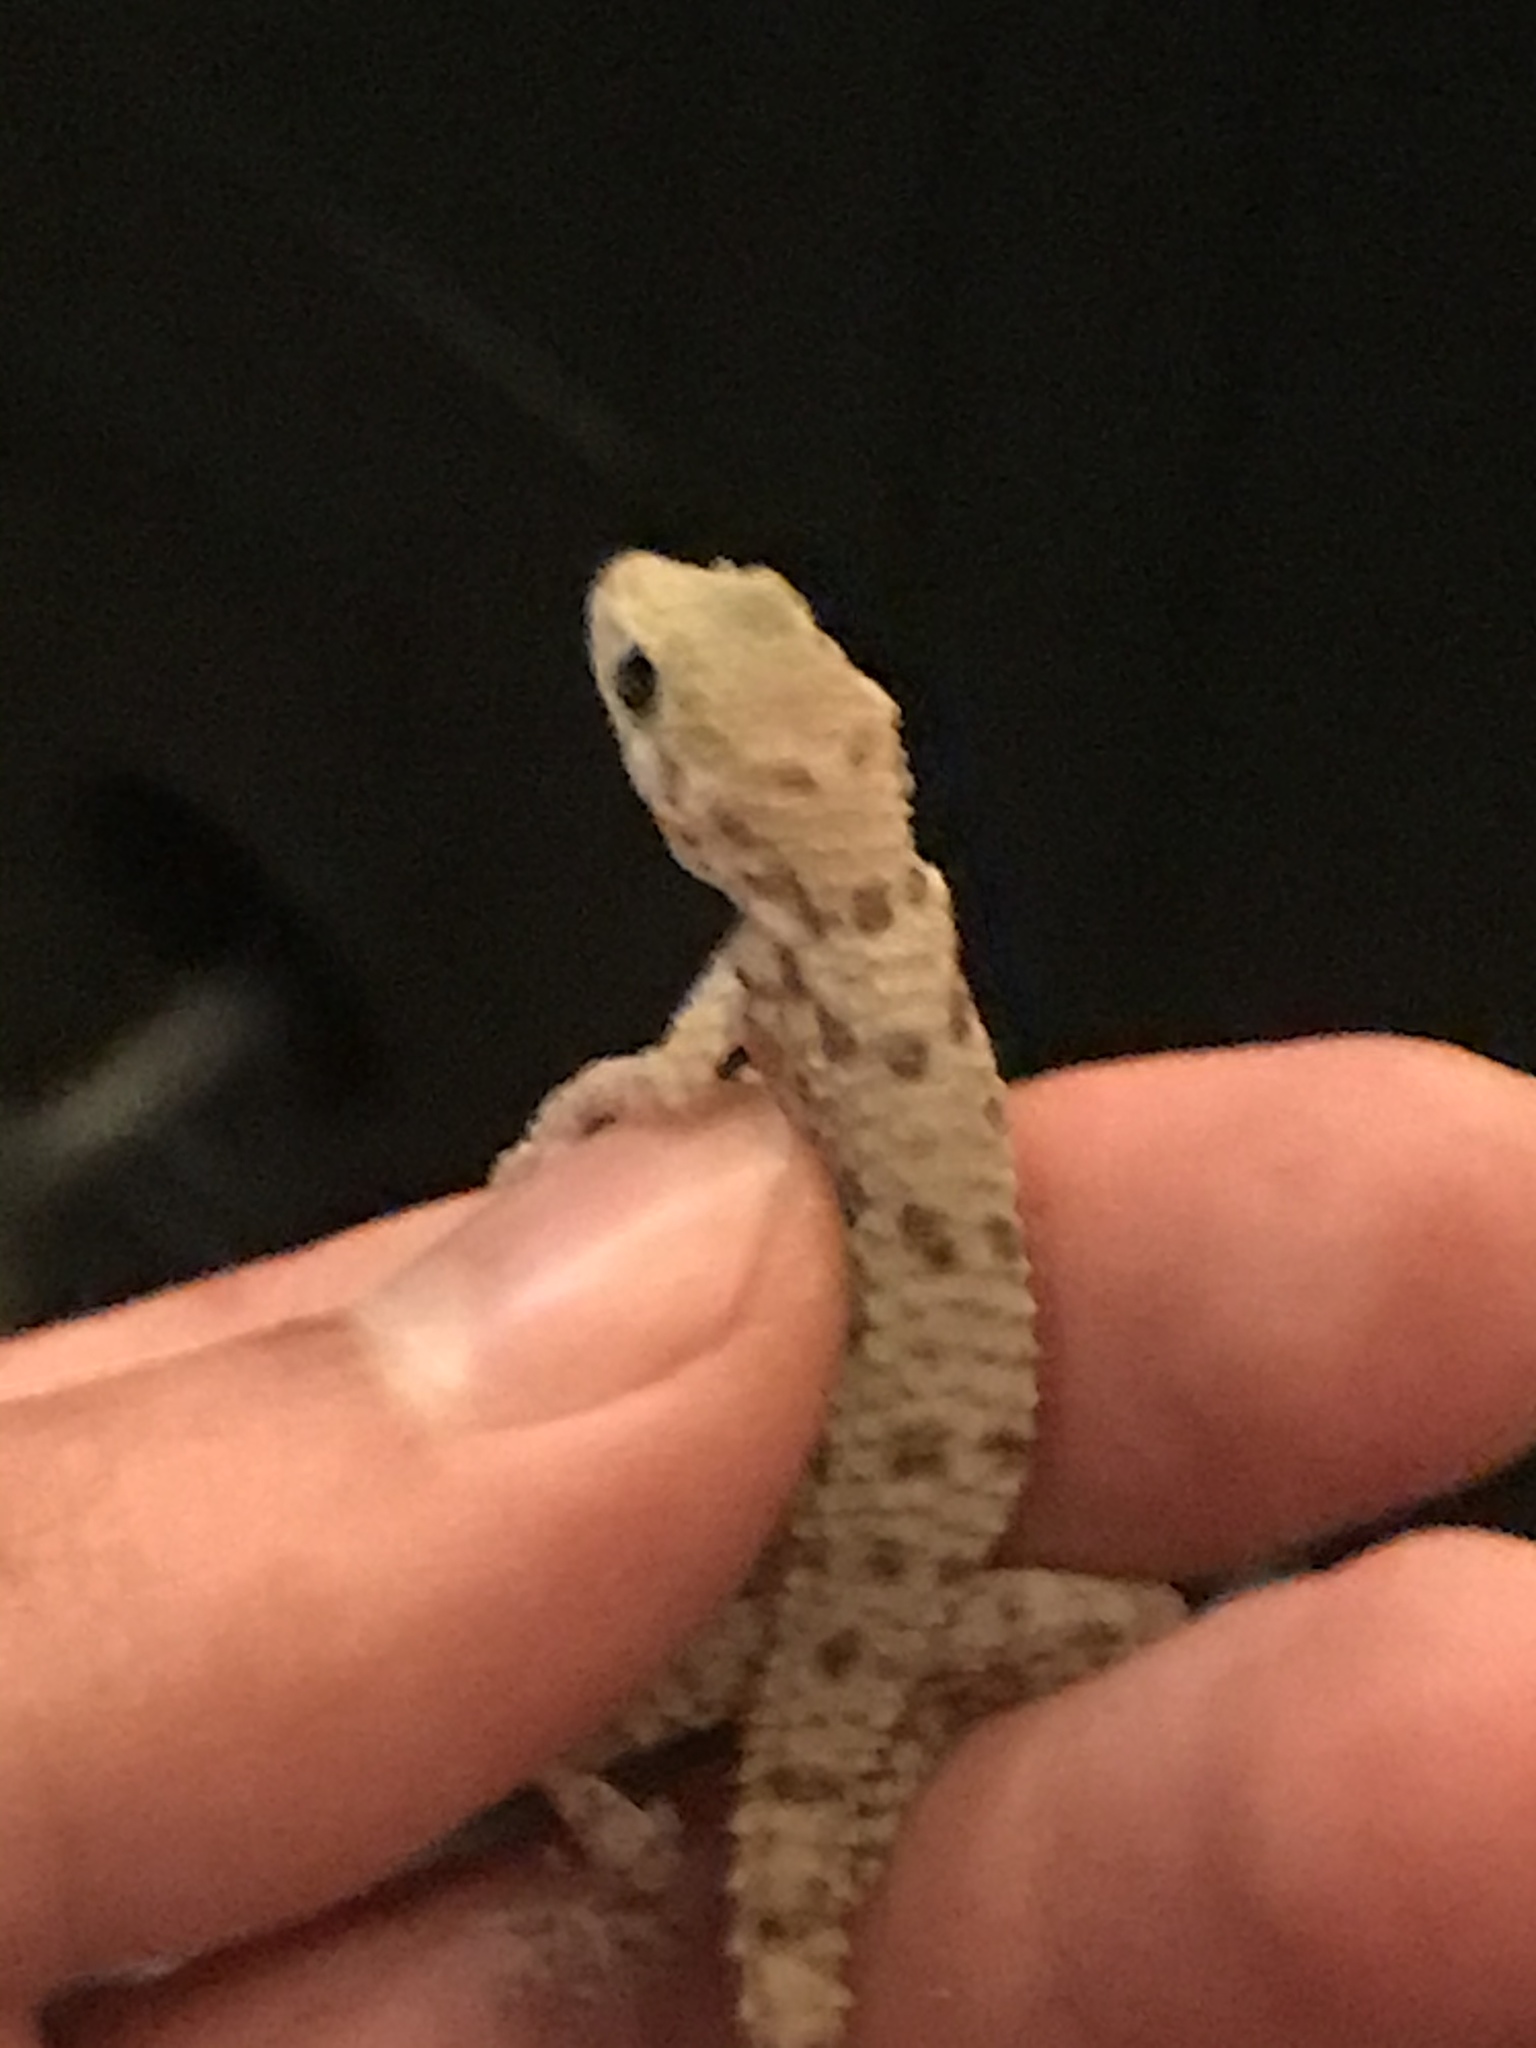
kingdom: Animalia
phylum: Chordata
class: Squamata
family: Gekkonidae
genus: Cyrtopodion
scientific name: Cyrtopodion scabrum
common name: Rough-tailed gecko
